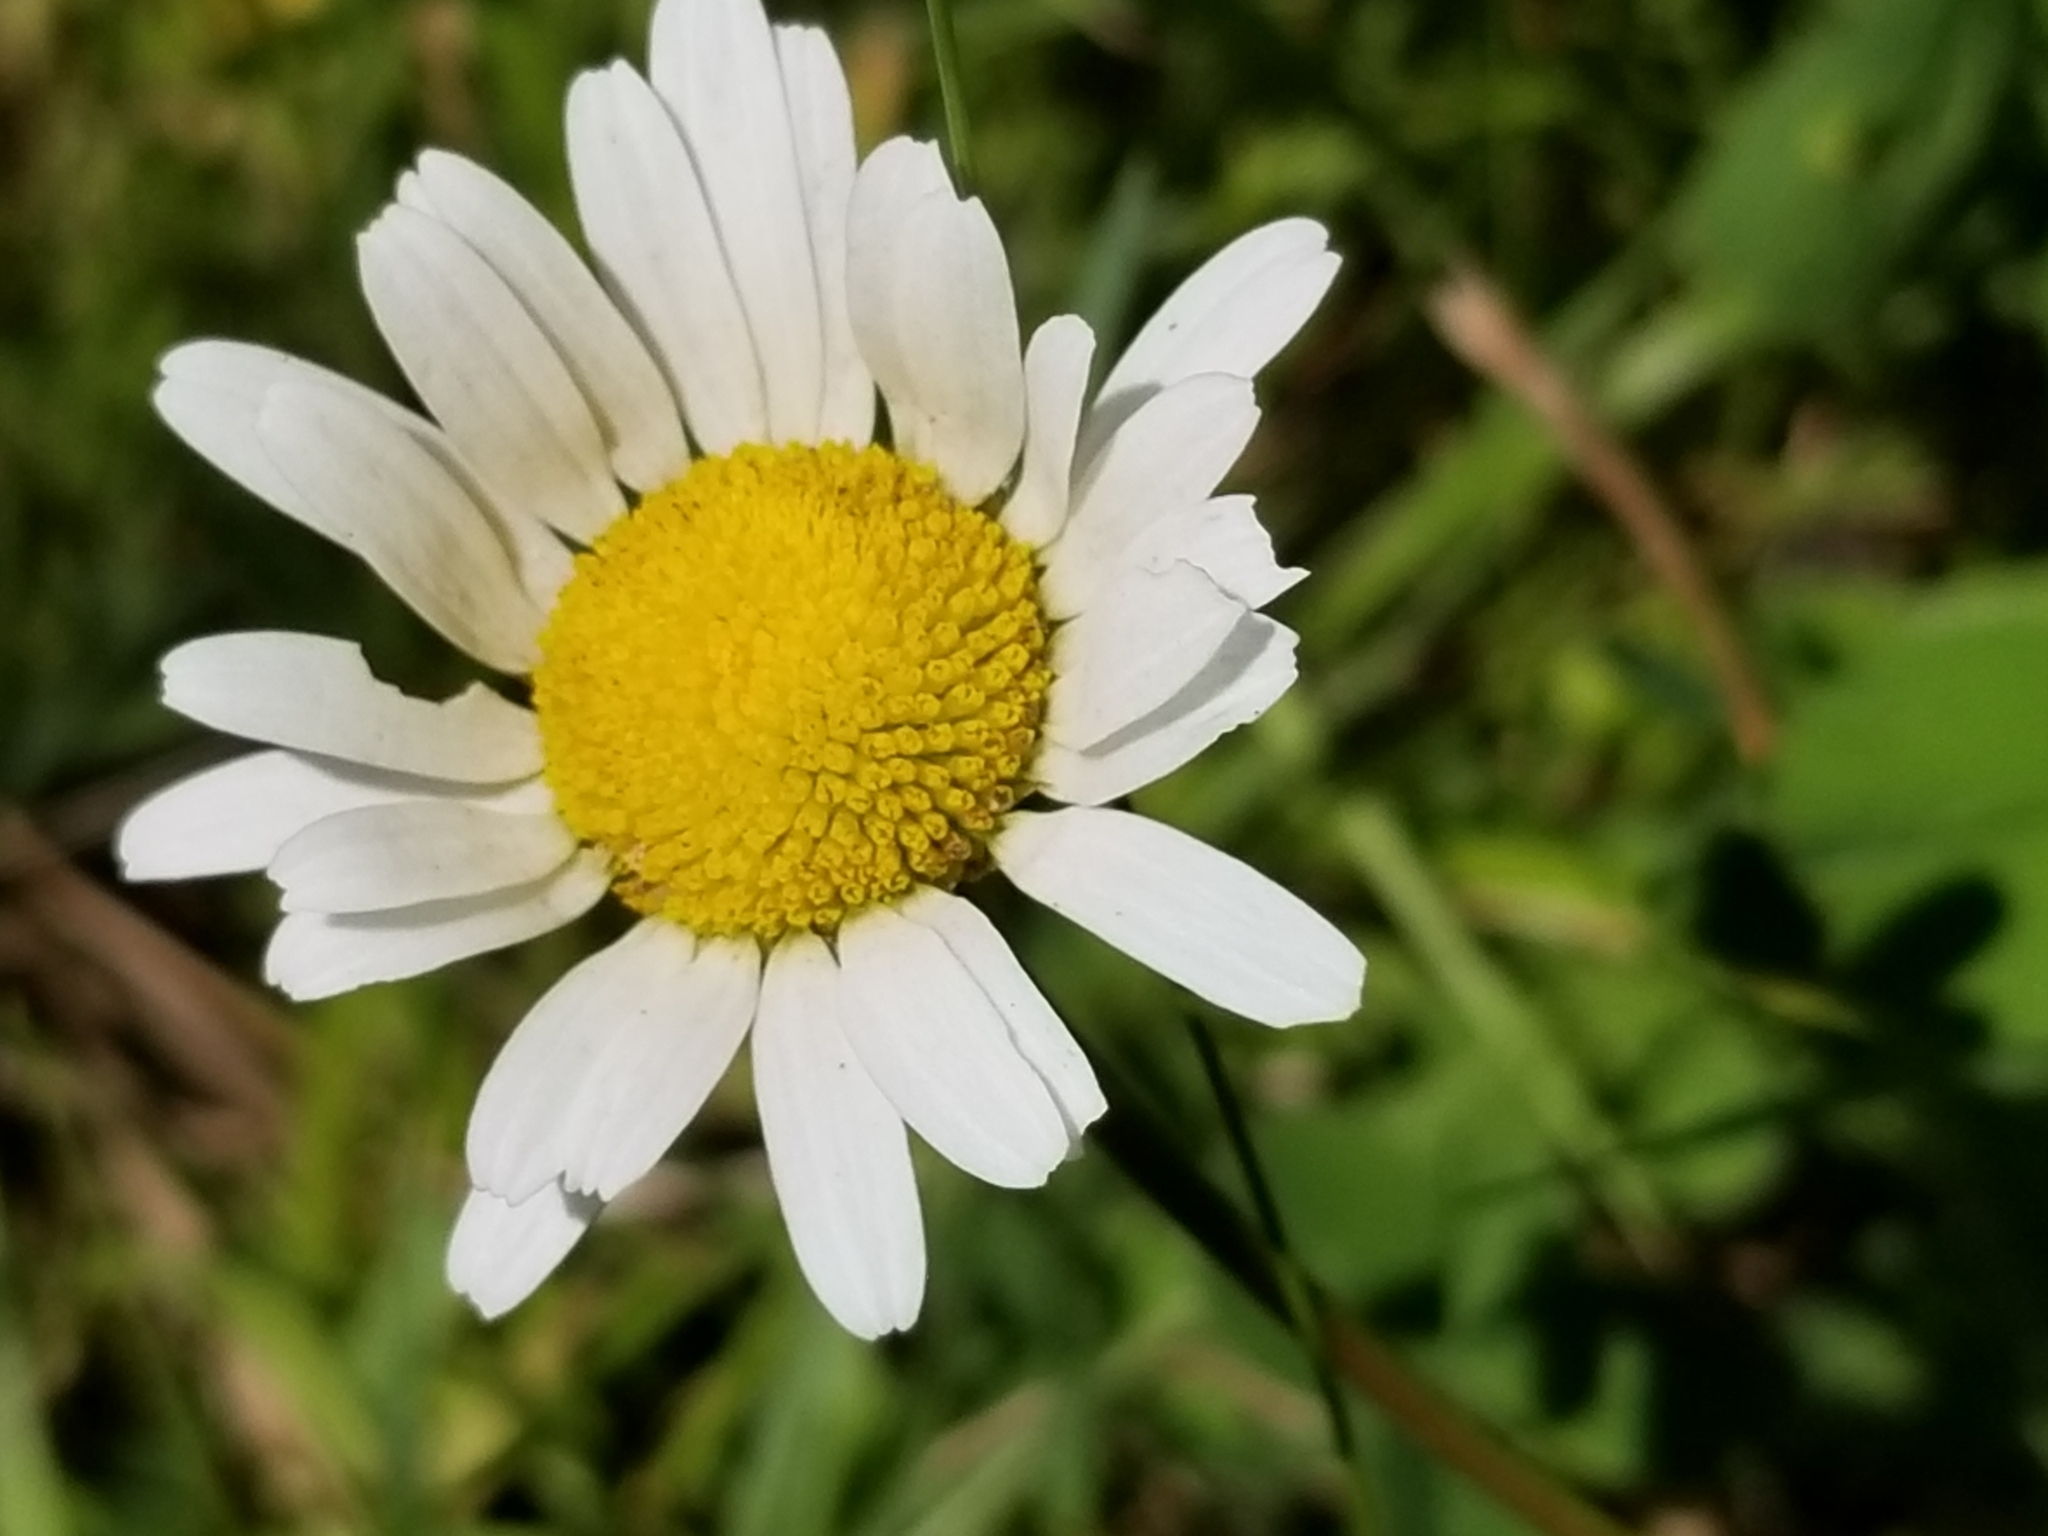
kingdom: Plantae
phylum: Tracheophyta
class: Magnoliopsida
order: Asterales
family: Asteraceae
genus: Leucanthemum
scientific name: Leucanthemum vulgare
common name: Oxeye daisy
